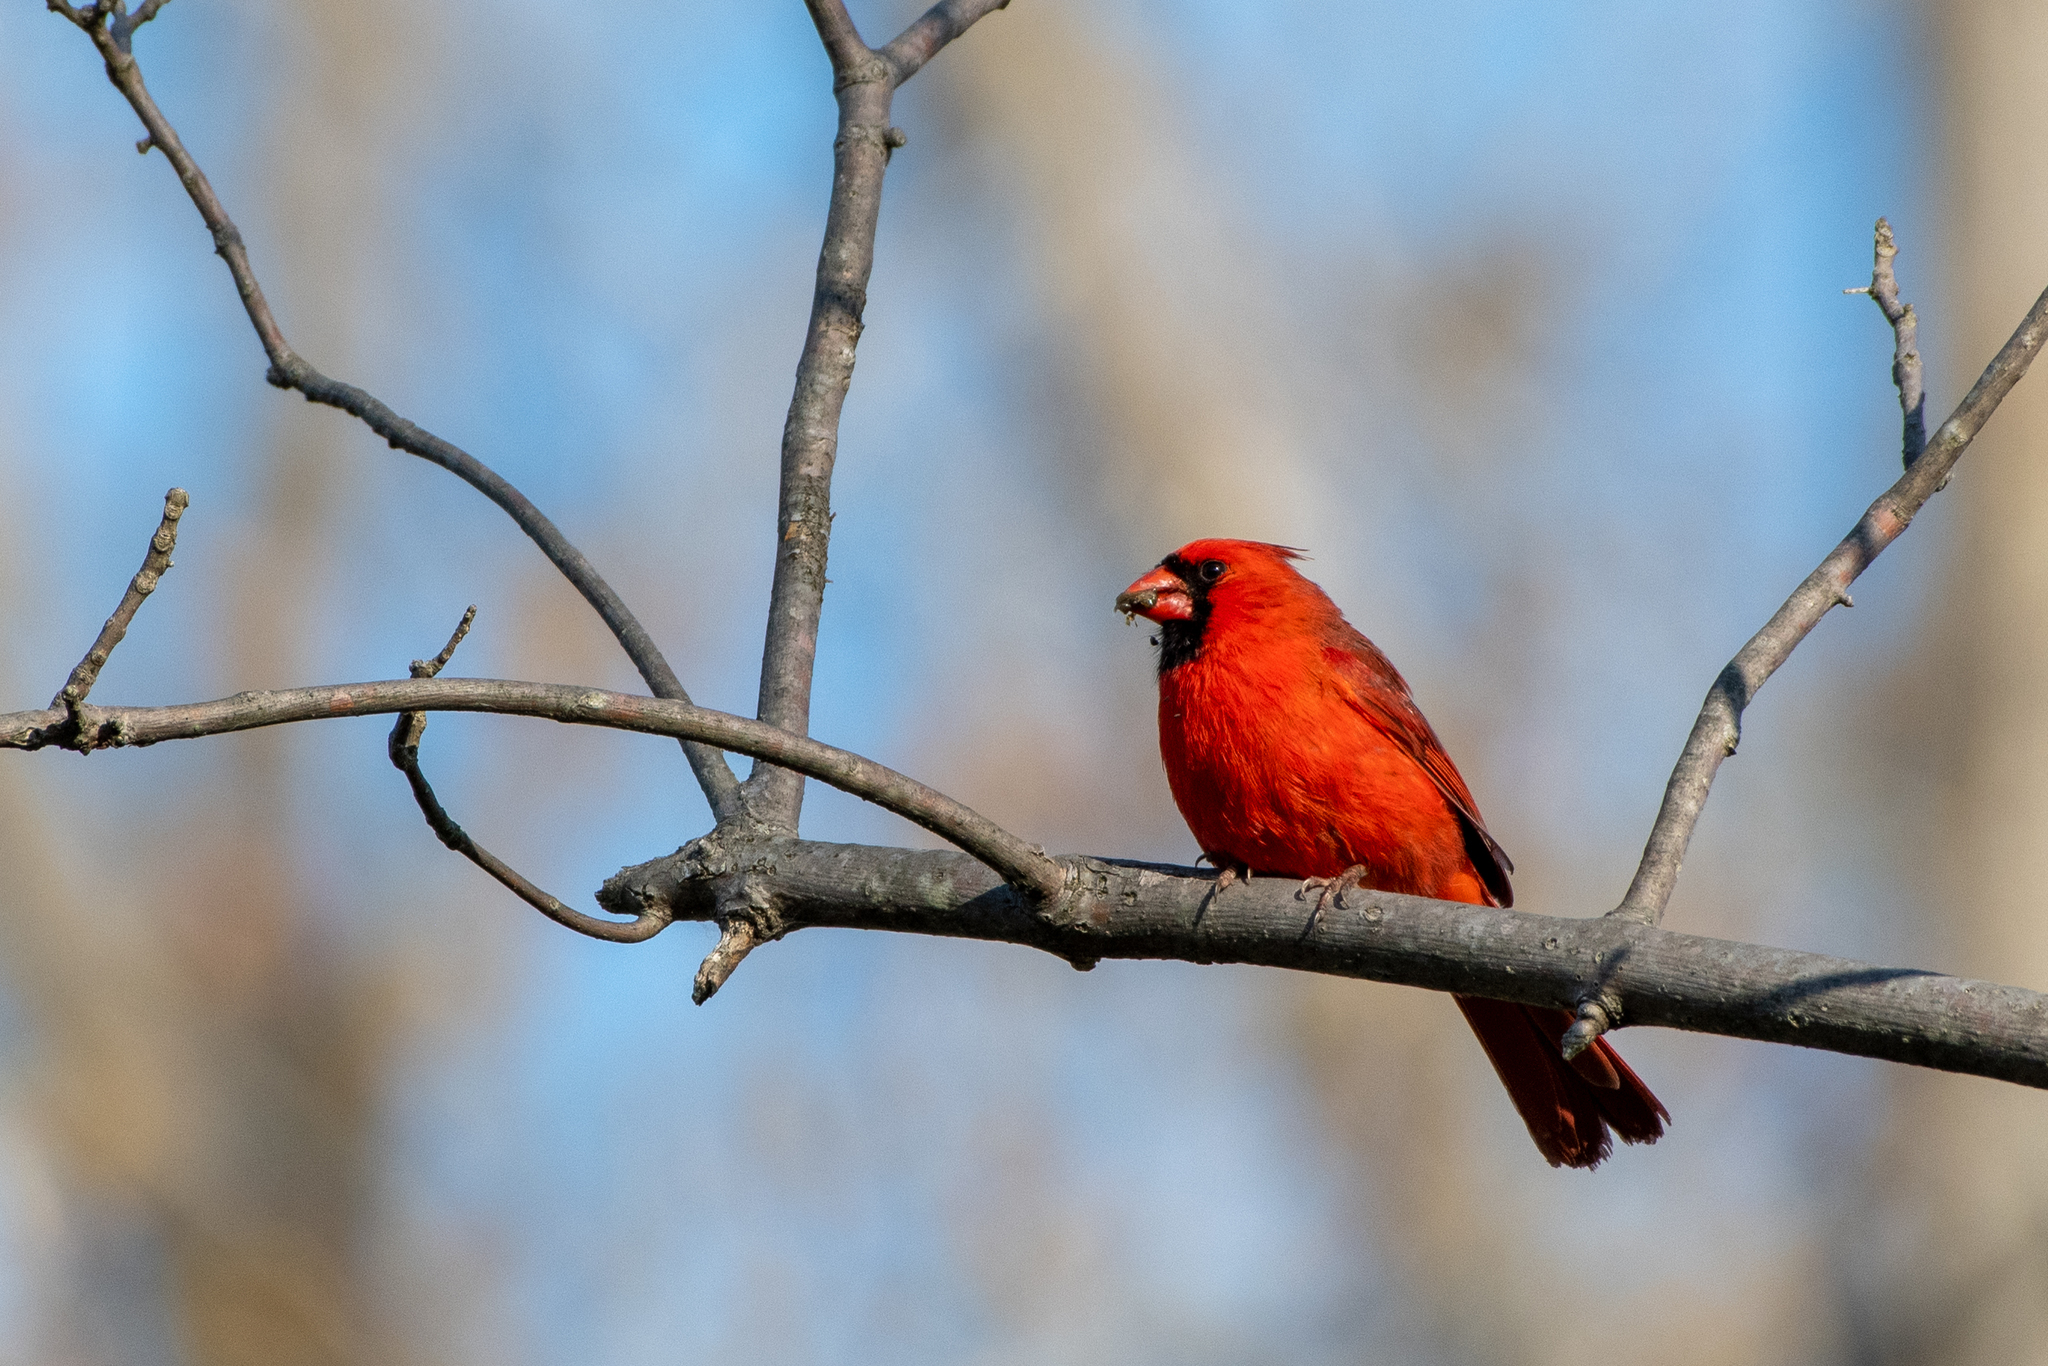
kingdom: Animalia
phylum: Chordata
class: Aves
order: Passeriformes
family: Cardinalidae
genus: Cardinalis
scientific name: Cardinalis cardinalis
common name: Northern cardinal
